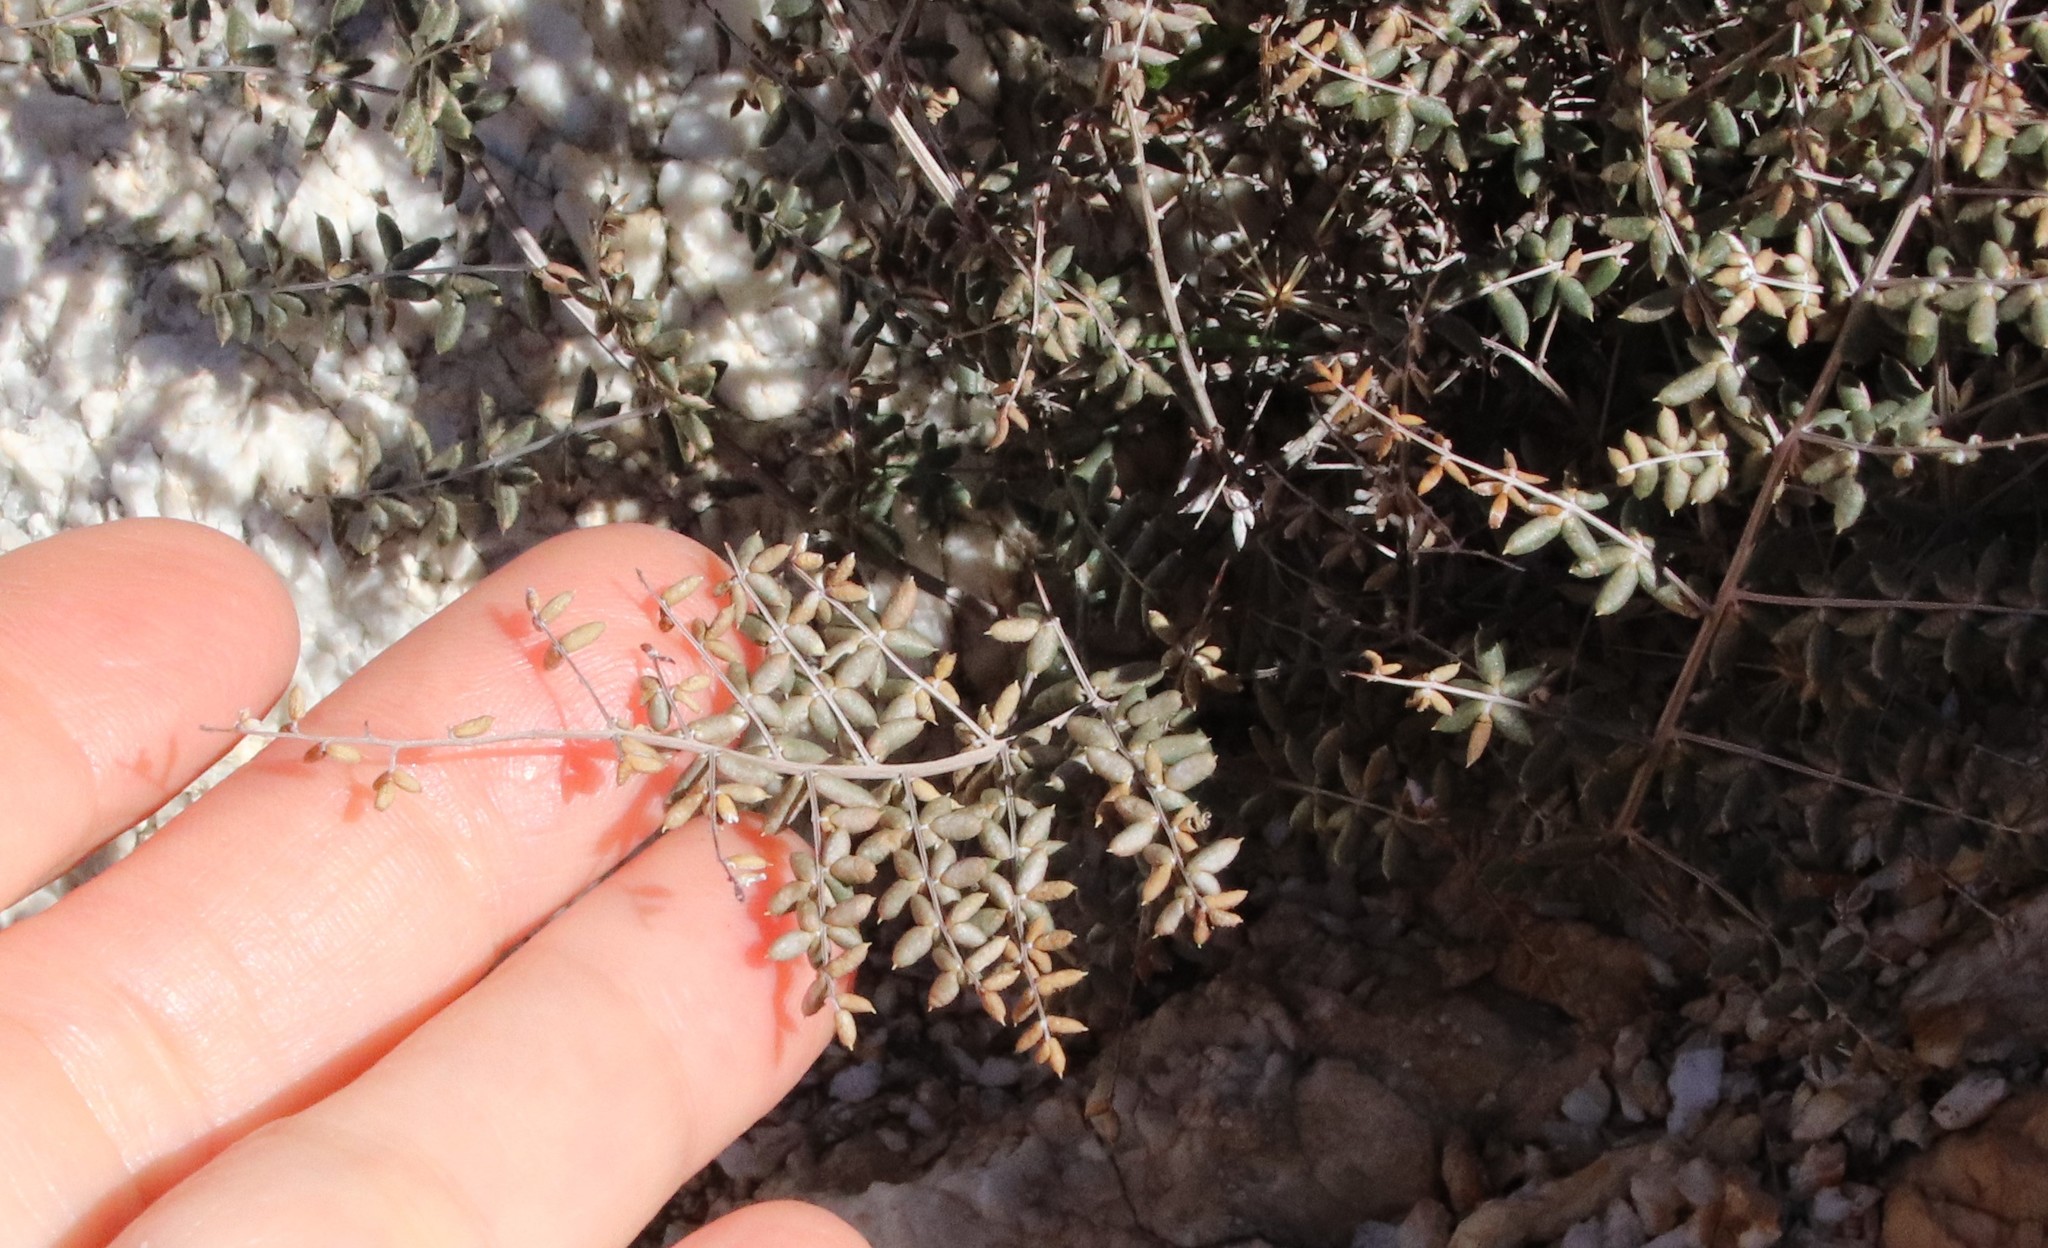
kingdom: Plantae
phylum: Tracheophyta
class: Polypodiopsida
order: Polypodiales
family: Pteridaceae
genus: Pellaea
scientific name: Pellaea mucronata
